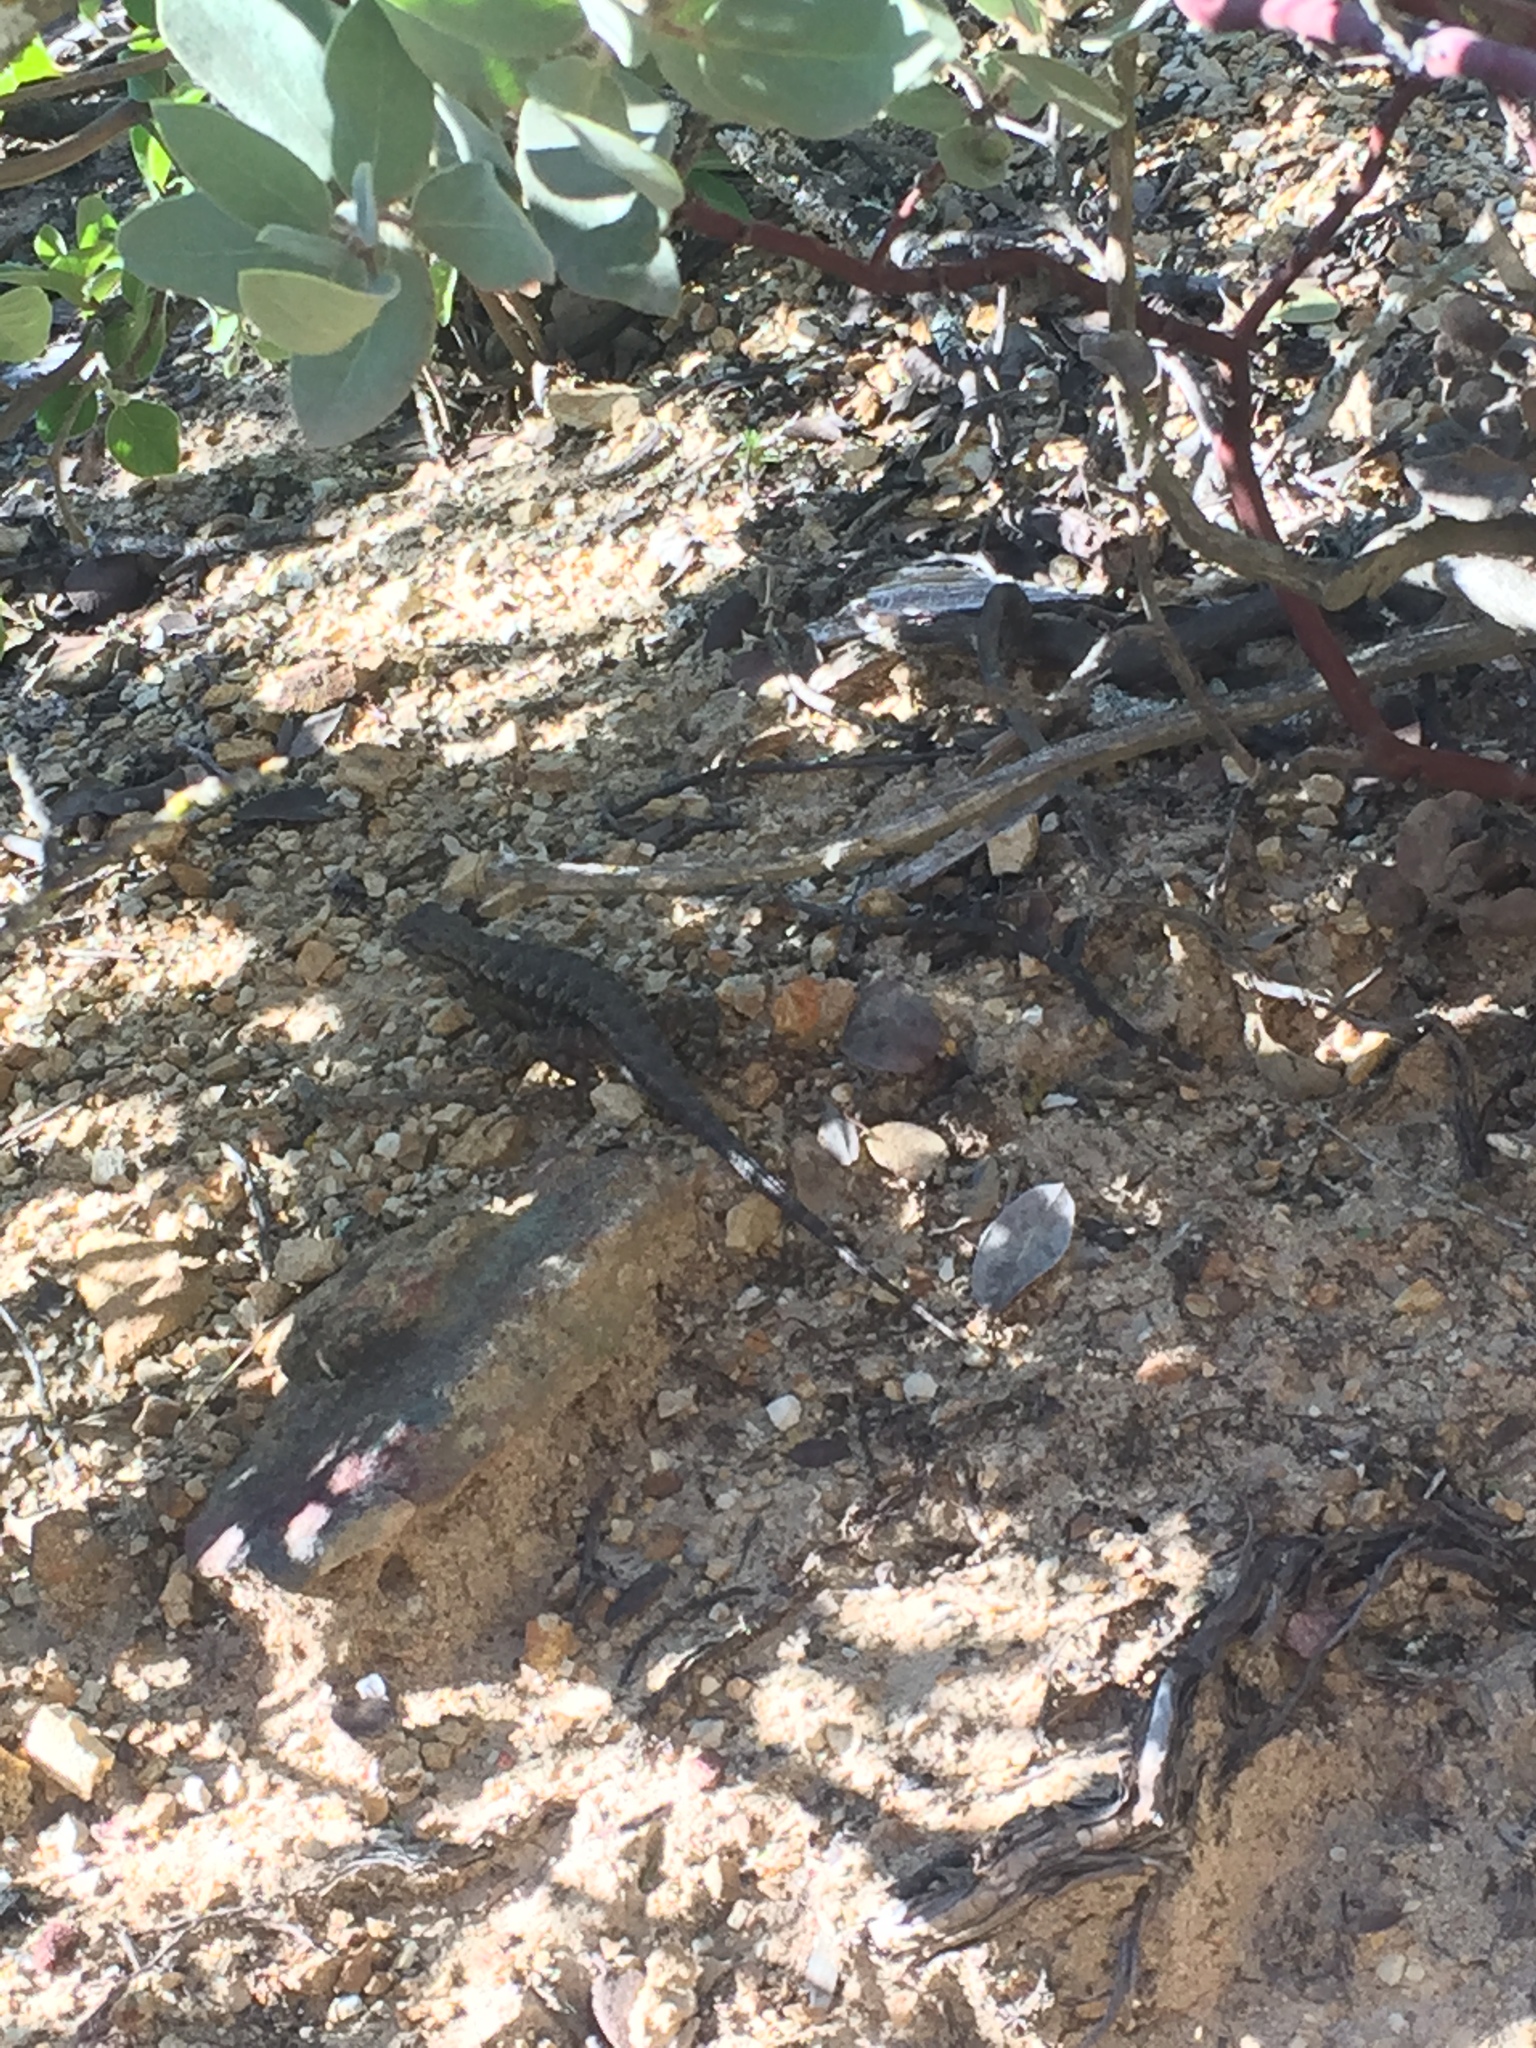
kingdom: Animalia
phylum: Chordata
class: Squamata
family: Phrynosomatidae
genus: Sceloporus
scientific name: Sceloporus occidentalis
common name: Western fence lizard
